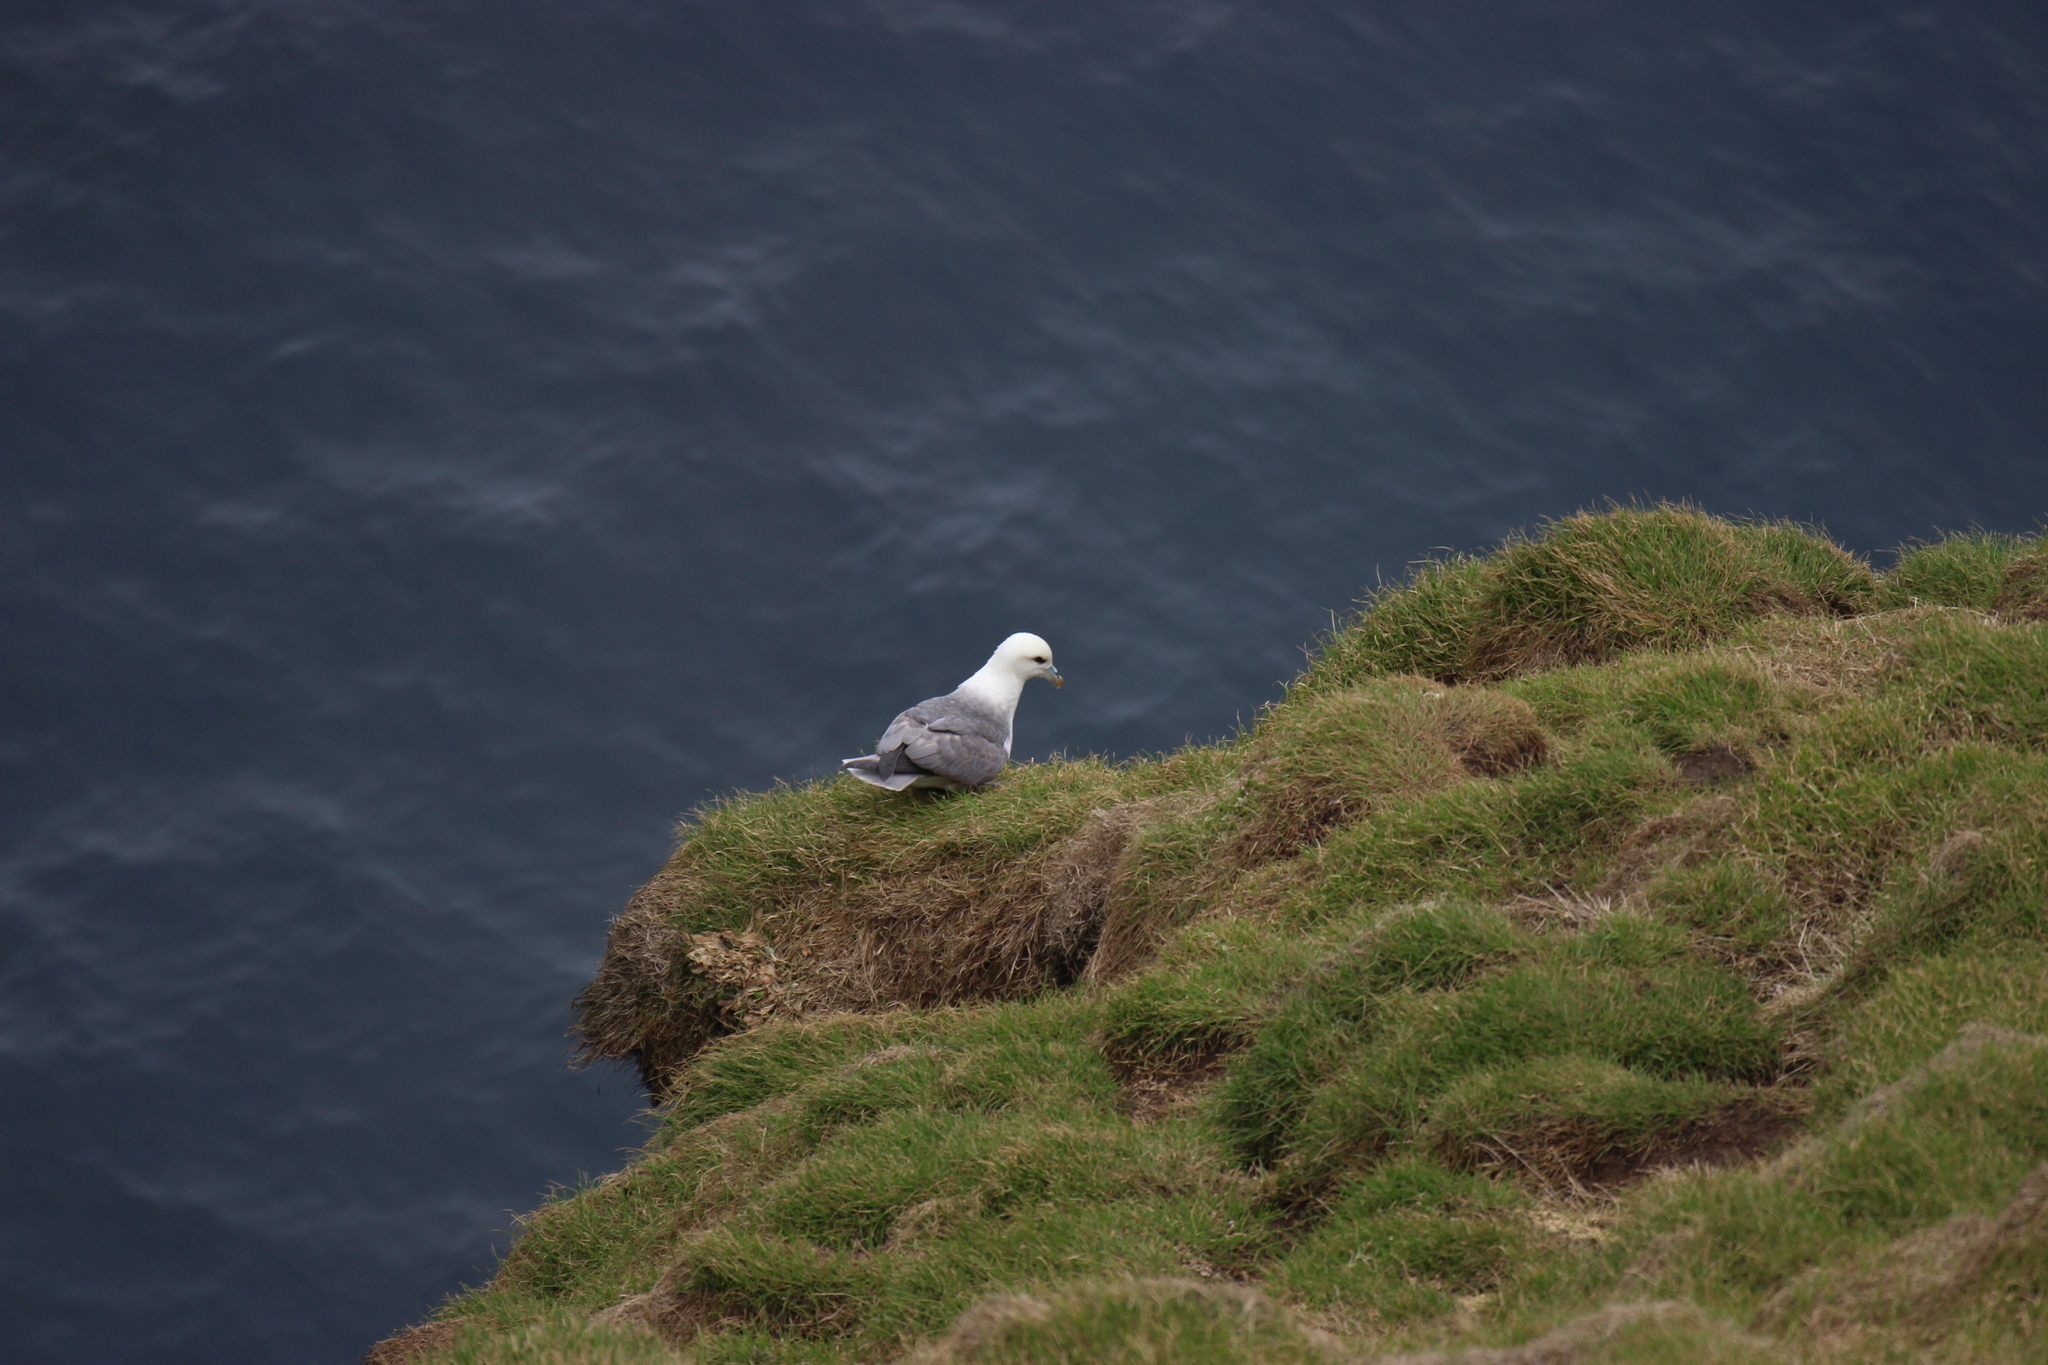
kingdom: Animalia
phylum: Chordata
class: Aves
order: Procellariiformes
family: Procellariidae
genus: Fulmarus
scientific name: Fulmarus glacialis
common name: Northern fulmar
